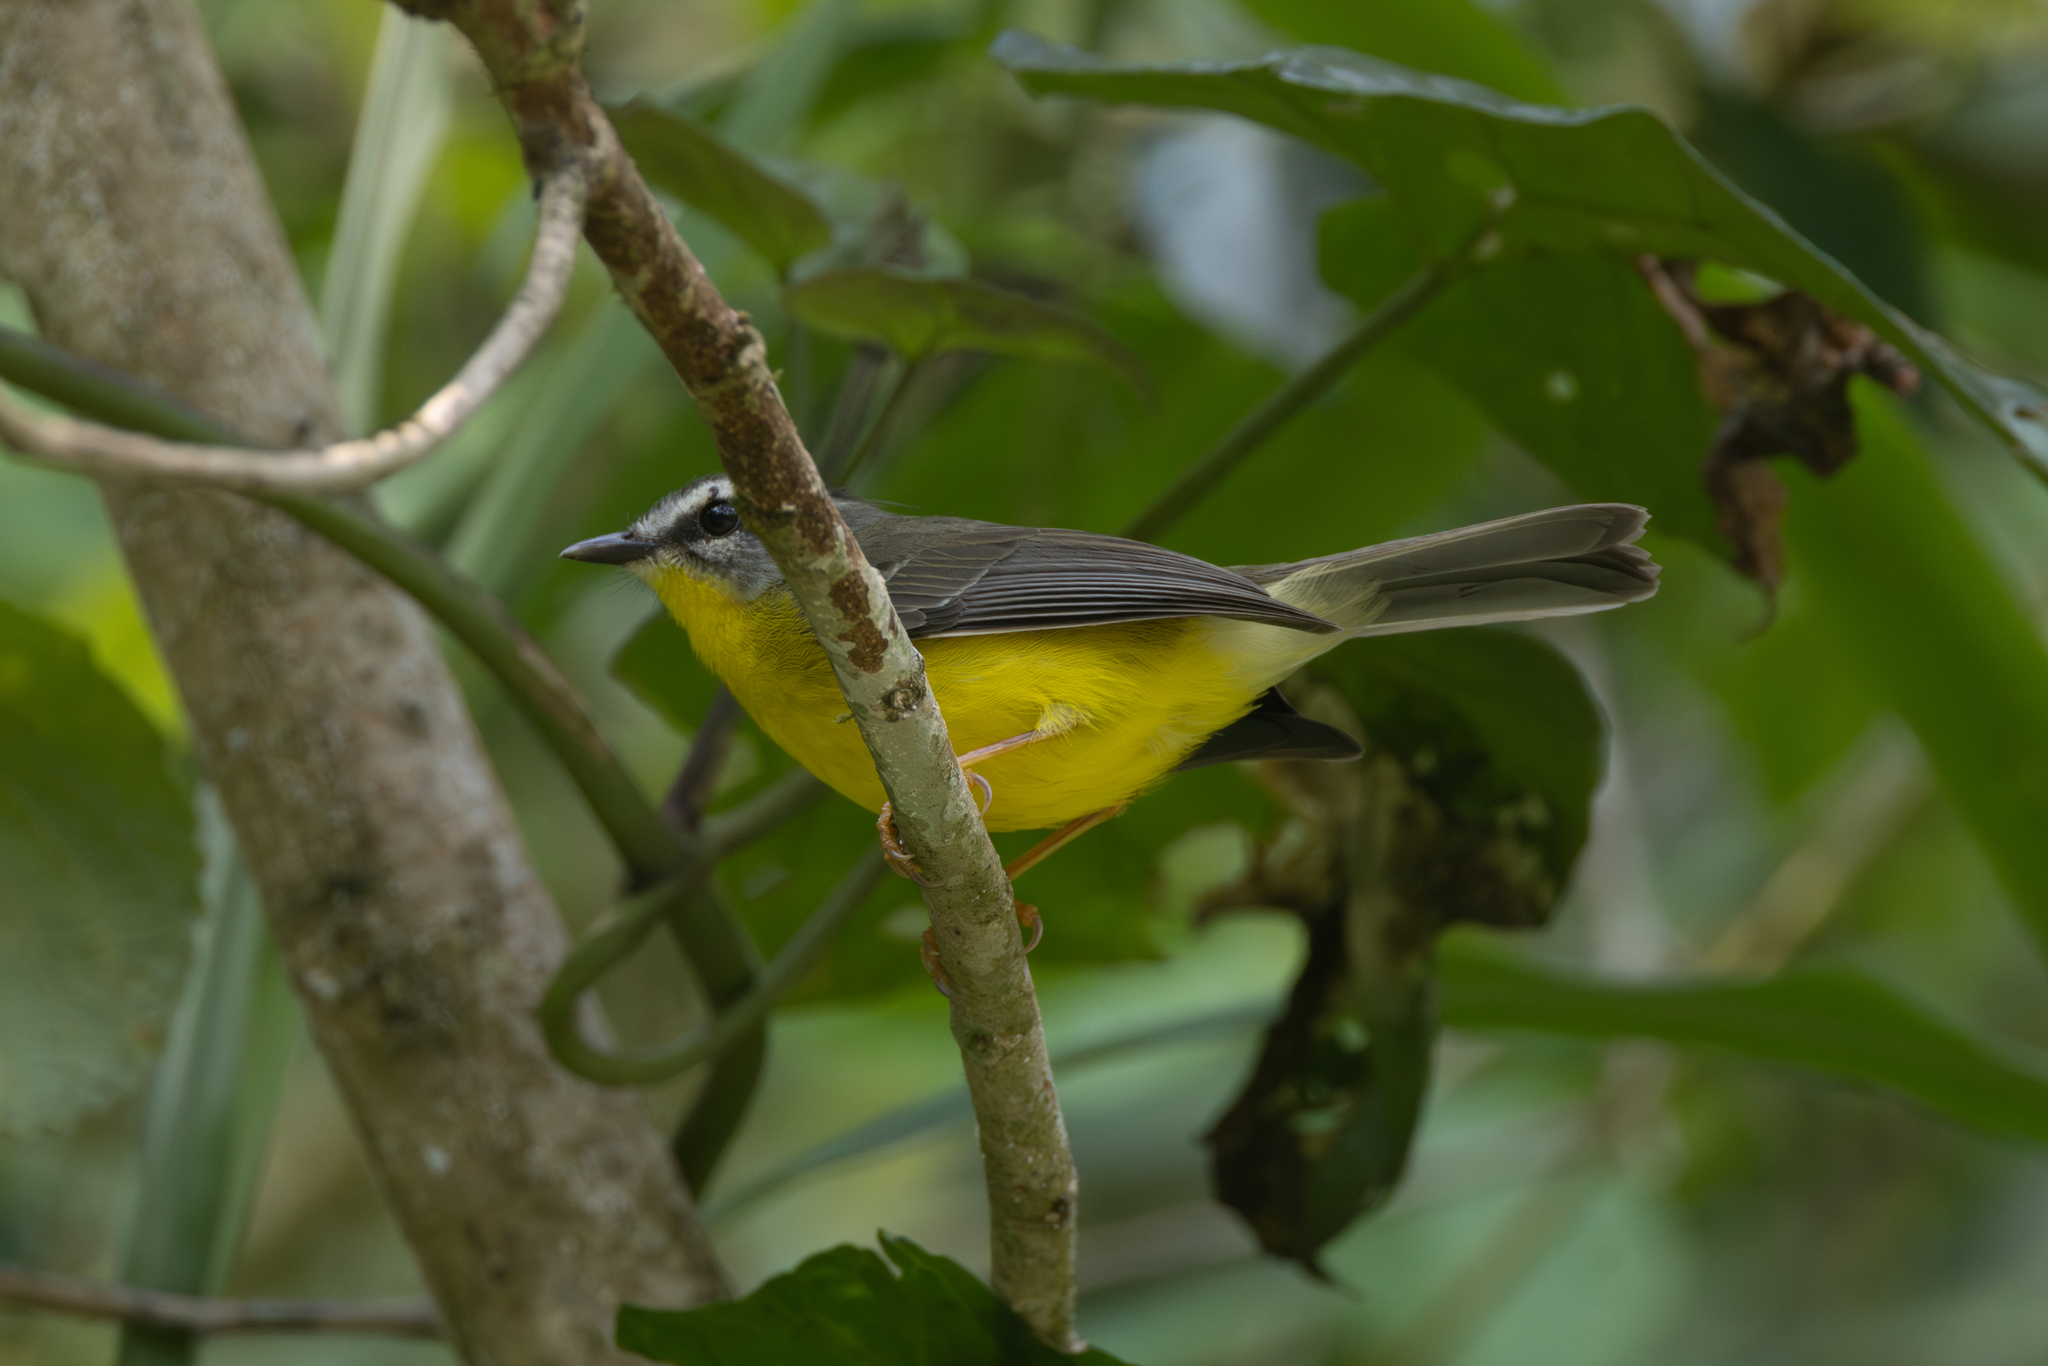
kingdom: Animalia
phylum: Chordata
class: Aves
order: Passeriformes
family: Parulidae
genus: Basileuterus
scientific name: Basileuterus culicivorus
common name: Golden-crowned warbler
